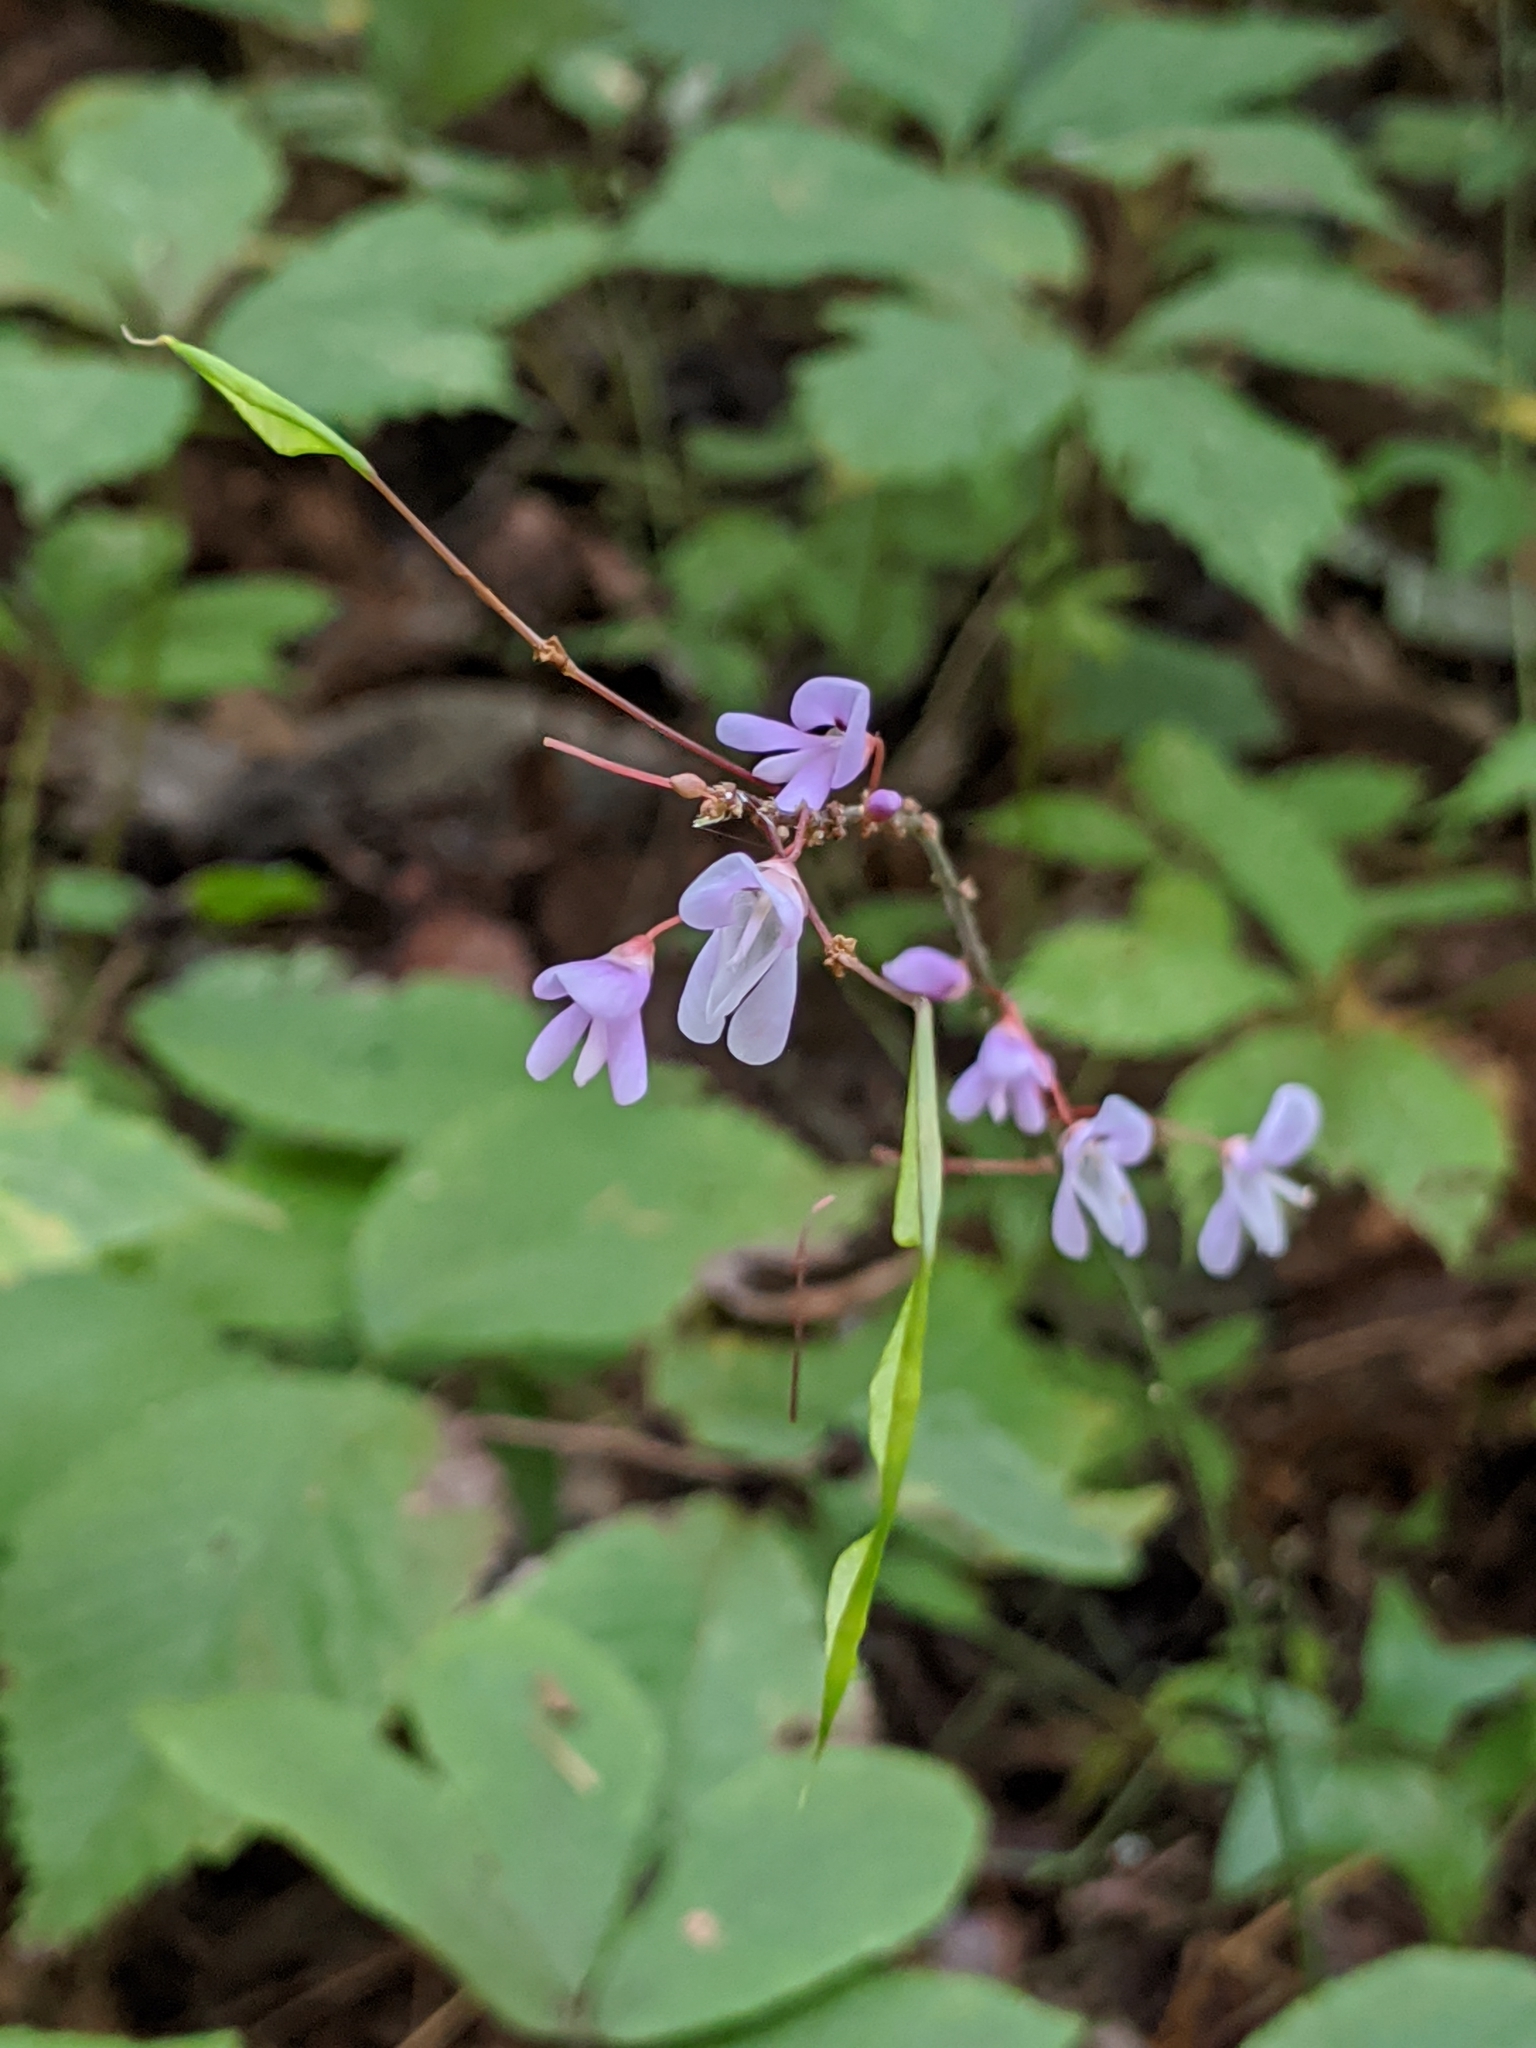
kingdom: Plantae
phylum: Tracheophyta
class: Magnoliopsida
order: Fabales
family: Fabaceae
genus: Hylodesmum
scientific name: Hylodesmum nudiflorum
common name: Bare-stemmed tick-trefoil
